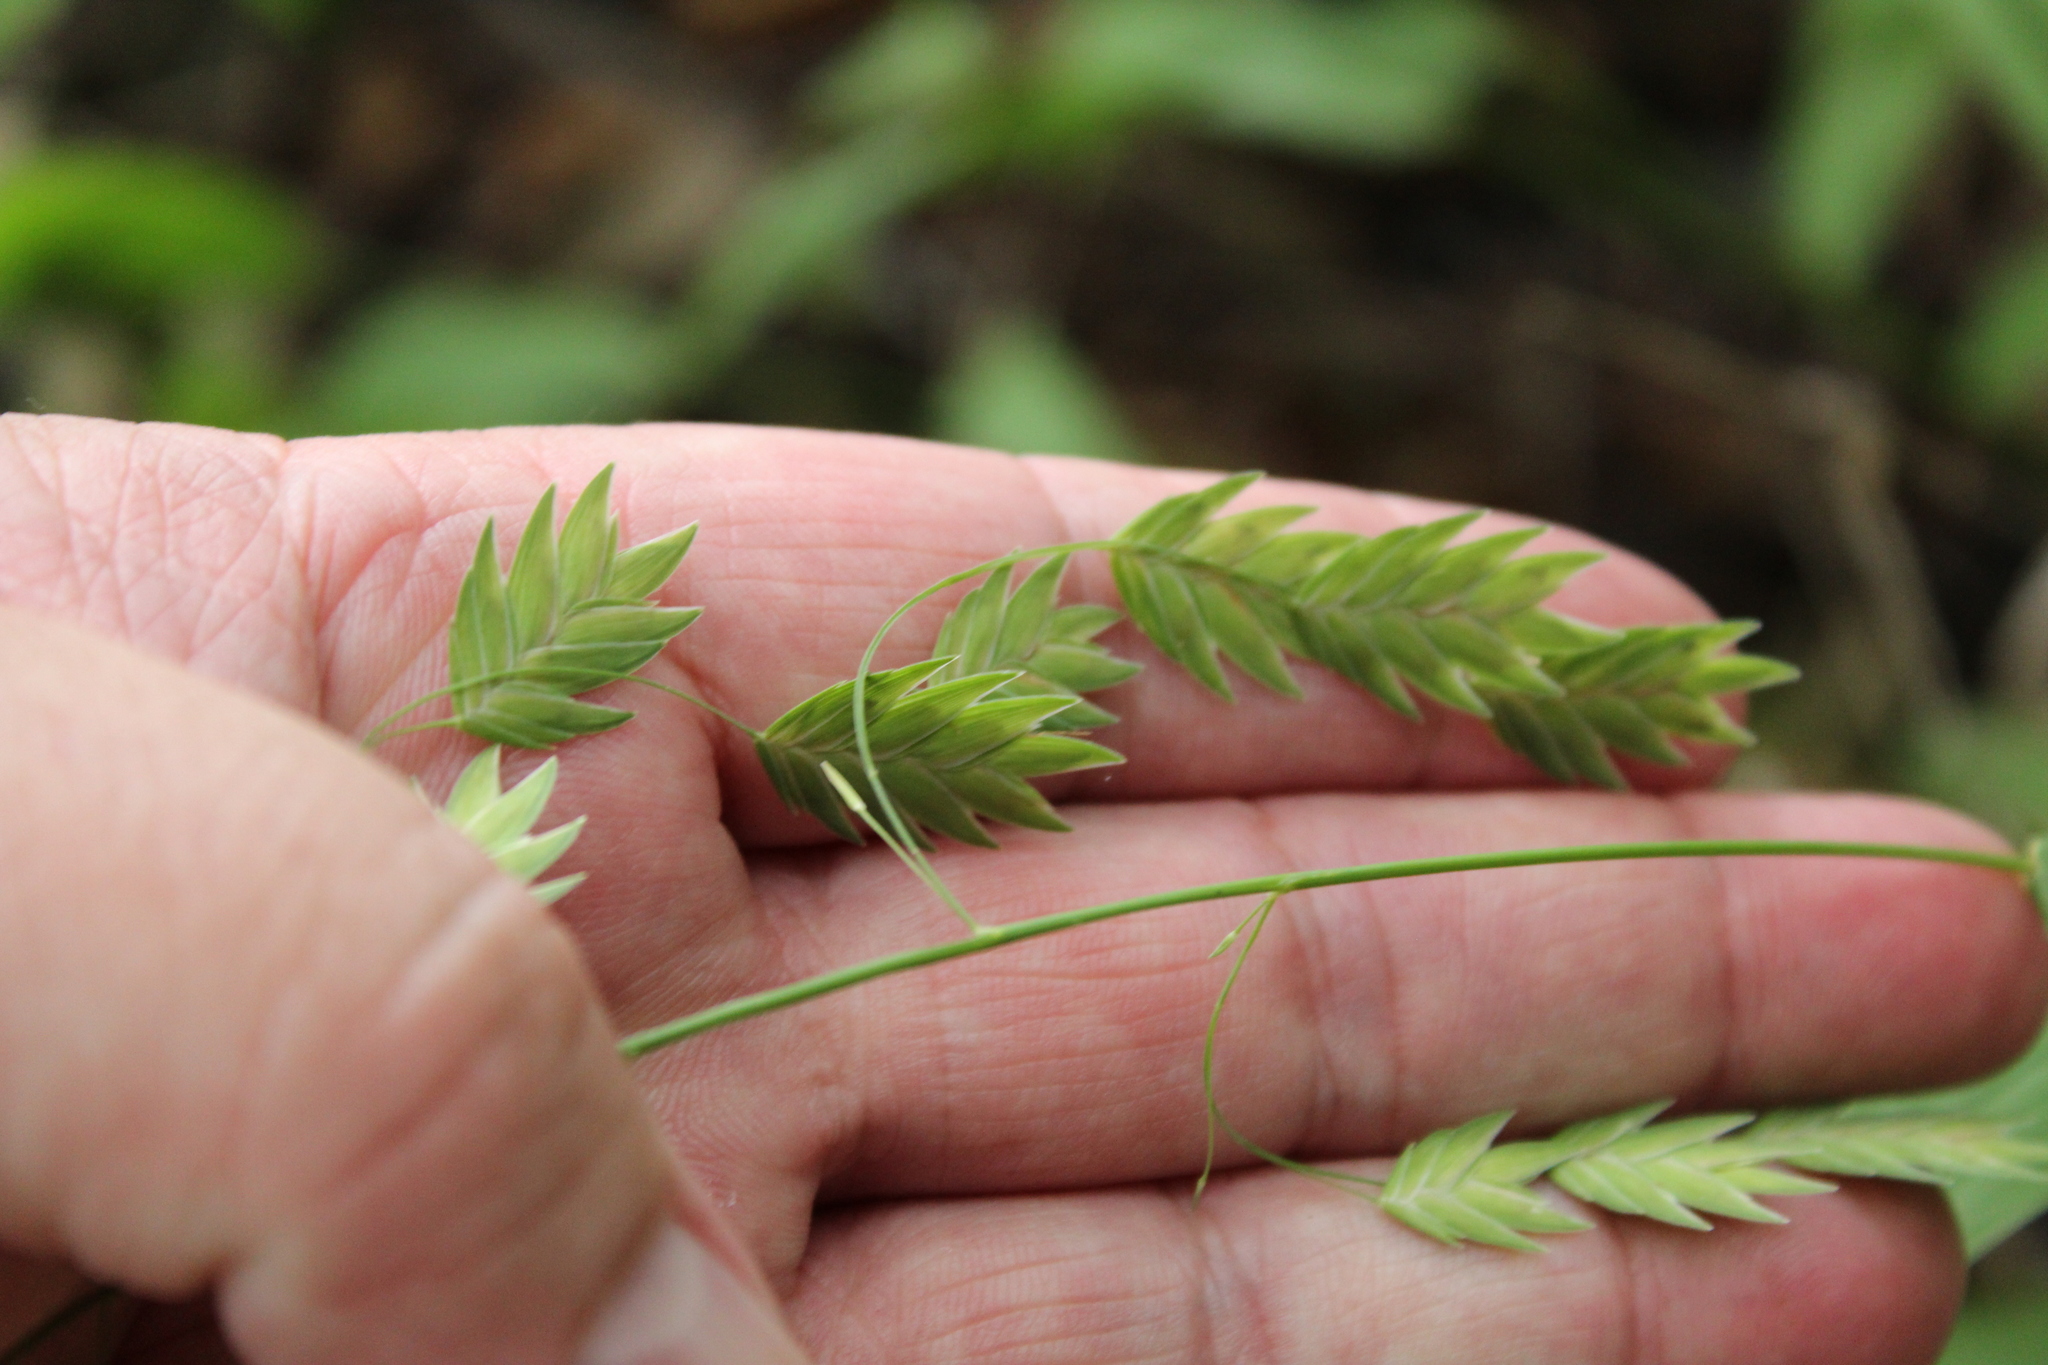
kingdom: Plantae
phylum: Tracheophyta
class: Liliopsida
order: Poales
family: Poaceae
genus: Chasmanthium
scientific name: Chasmanthium latifolium
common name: Broad-leaved chasmanthium
